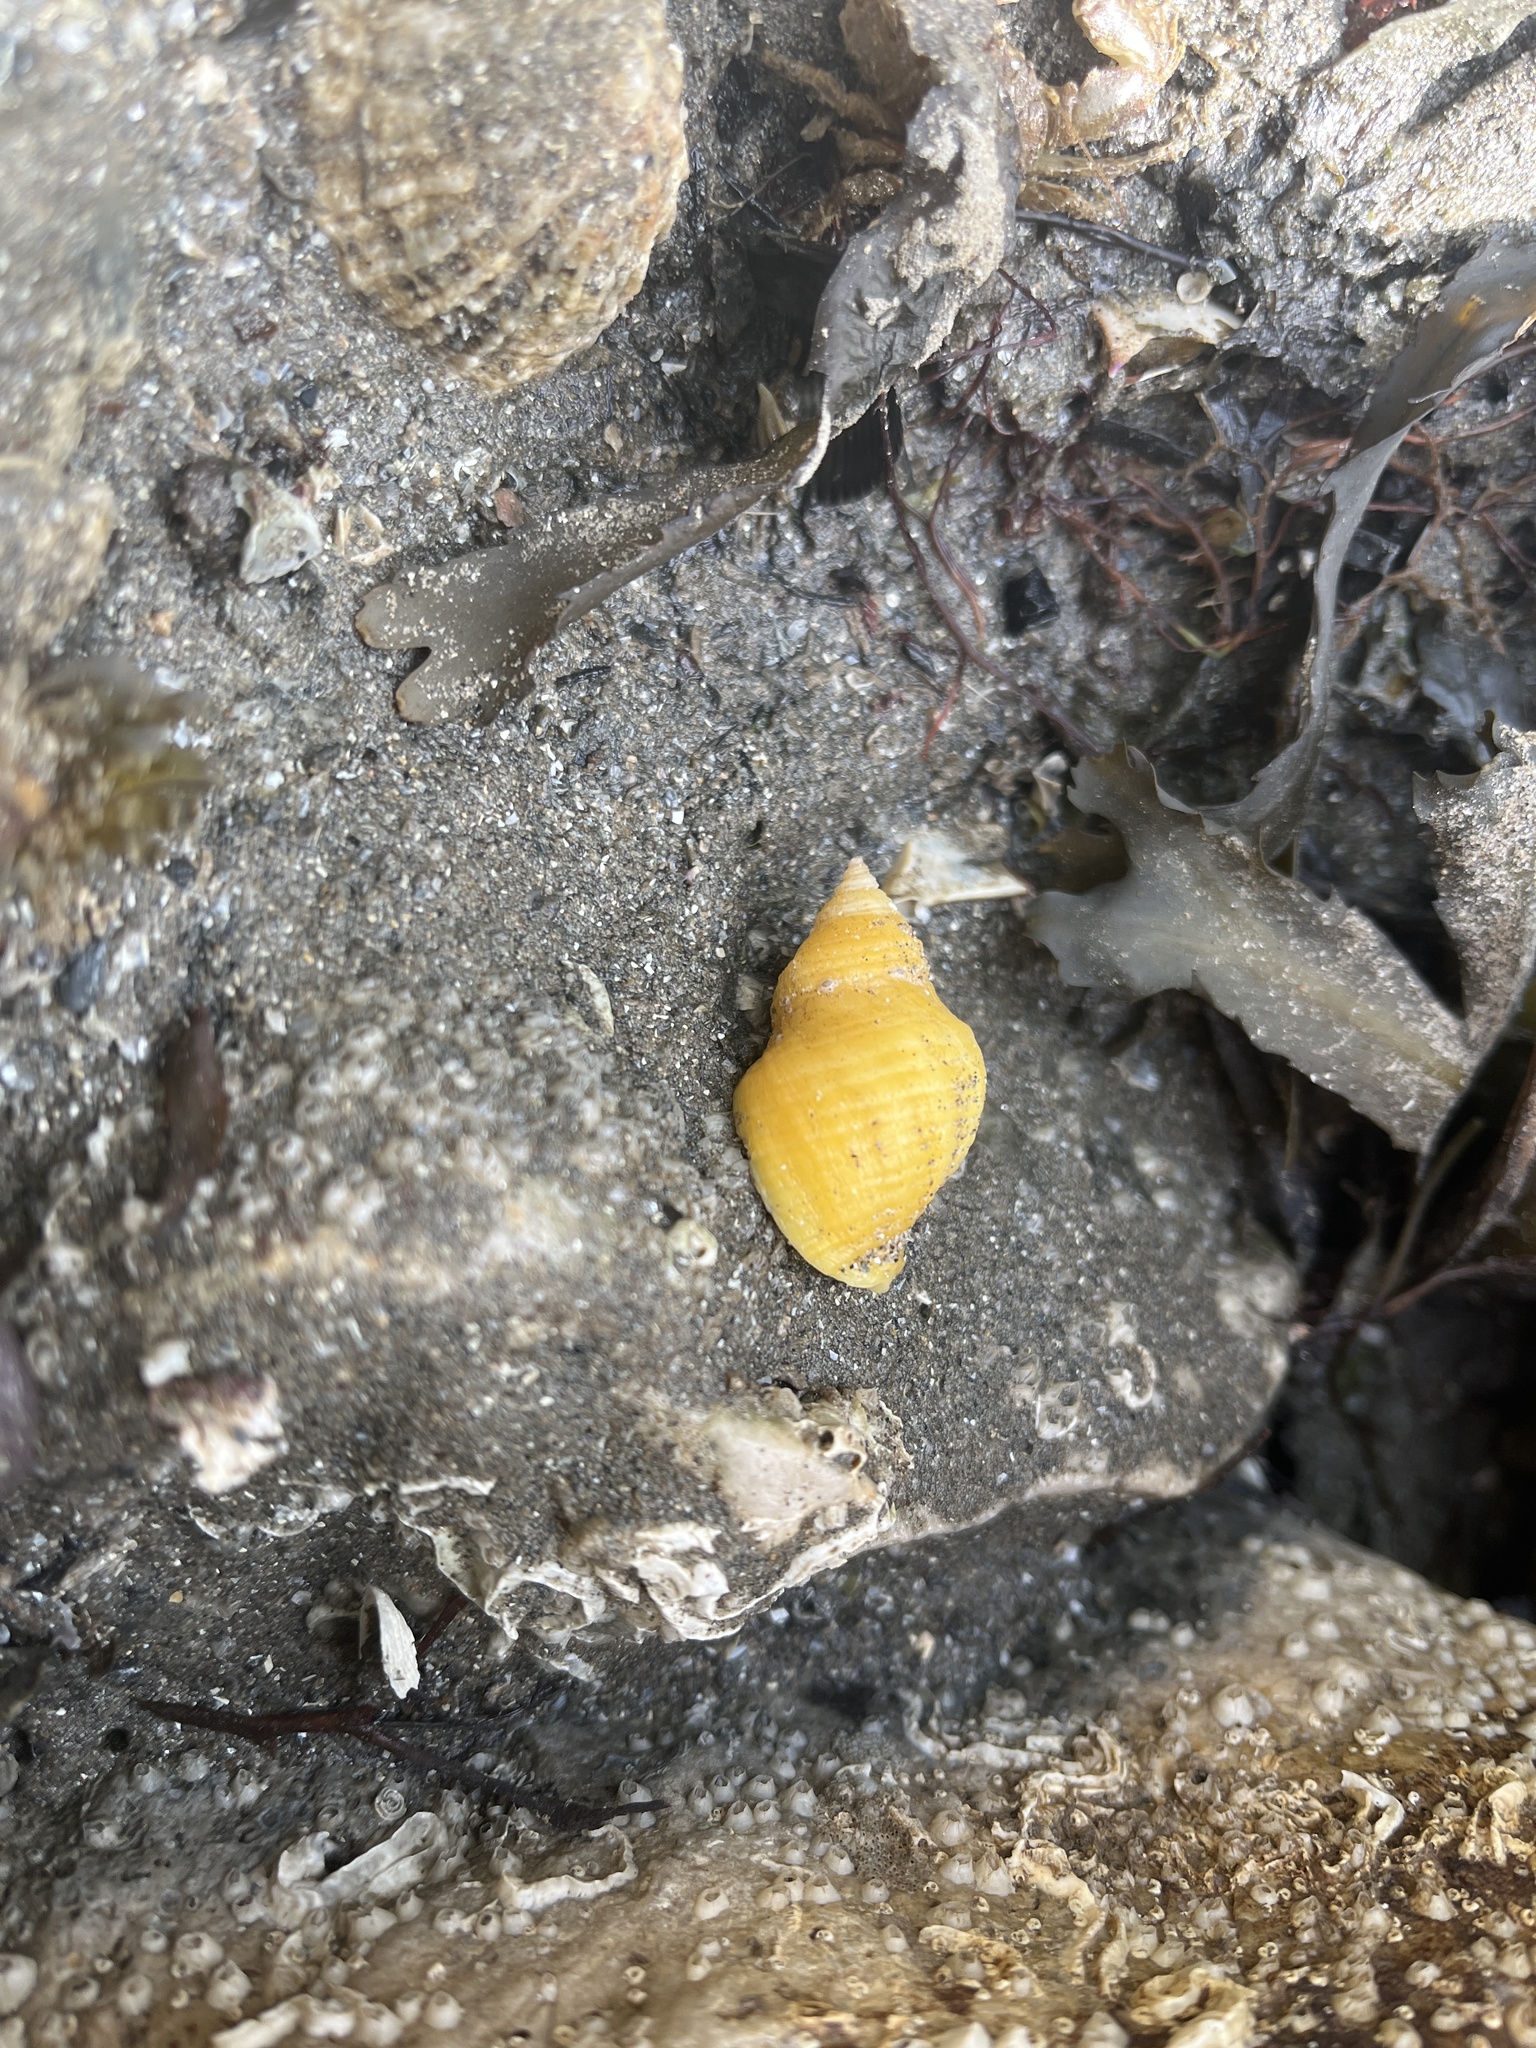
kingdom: Animalia
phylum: Mollusca
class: Gastropoda
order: Neogastropoda
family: Muricidae
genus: Nucella
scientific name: Nucella lapillus
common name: Dog whelk
